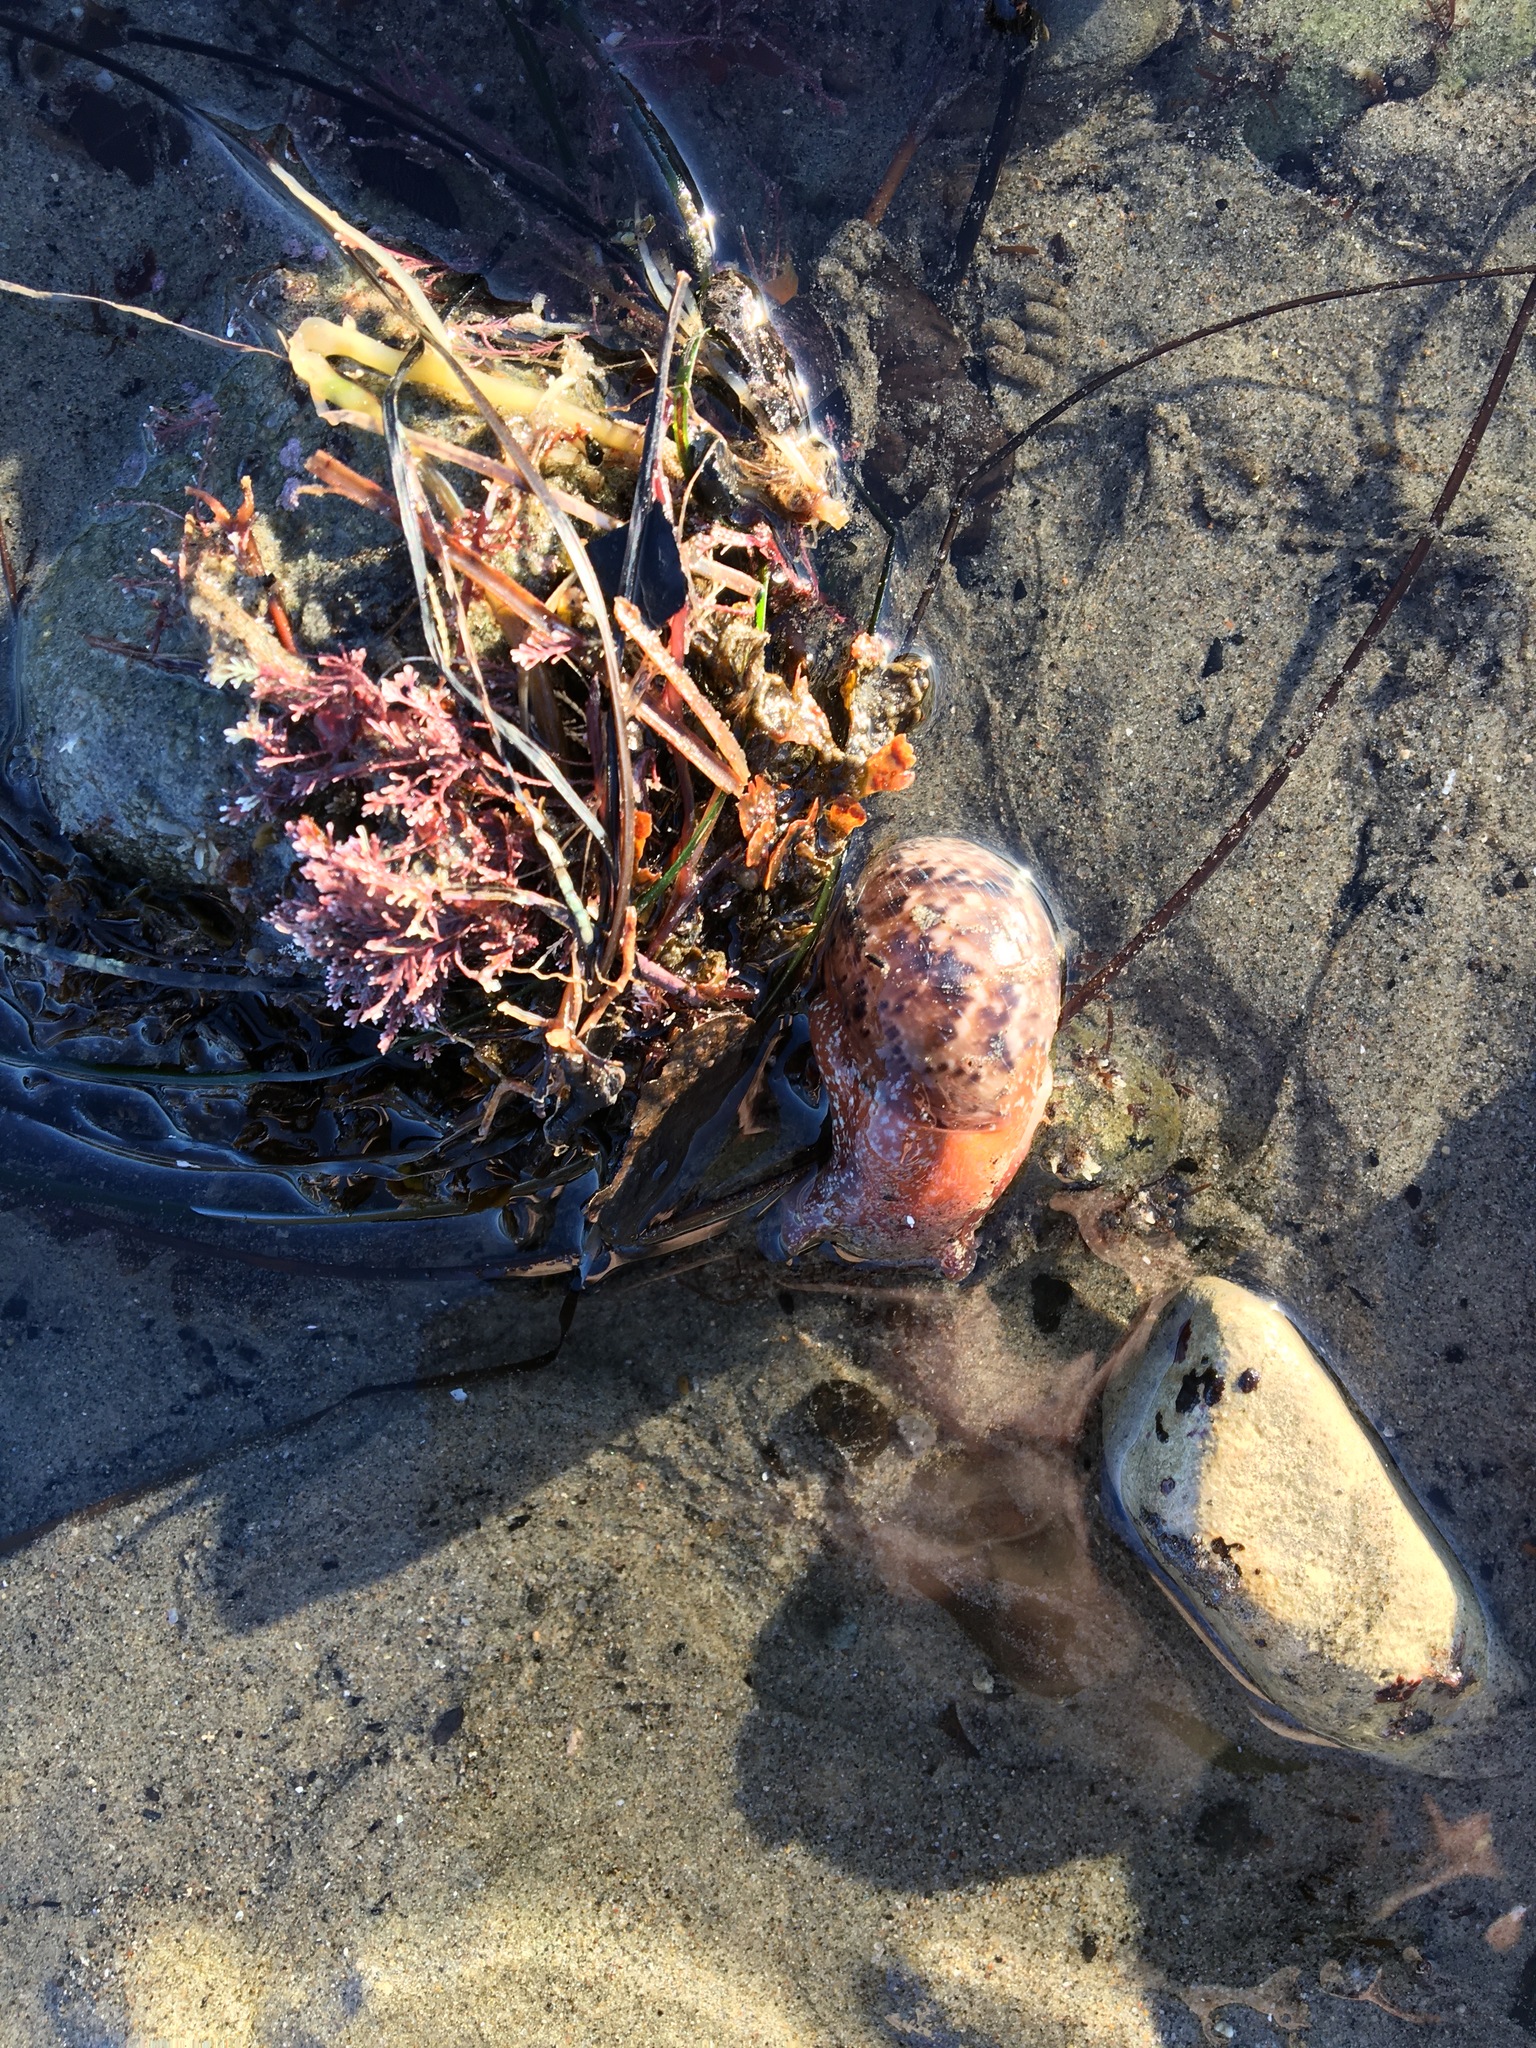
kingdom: Animalia
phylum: Mollusca
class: Gastropoda
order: Cephalaspidea
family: Bullidae
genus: Bulla
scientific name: Bulla gouldiana
